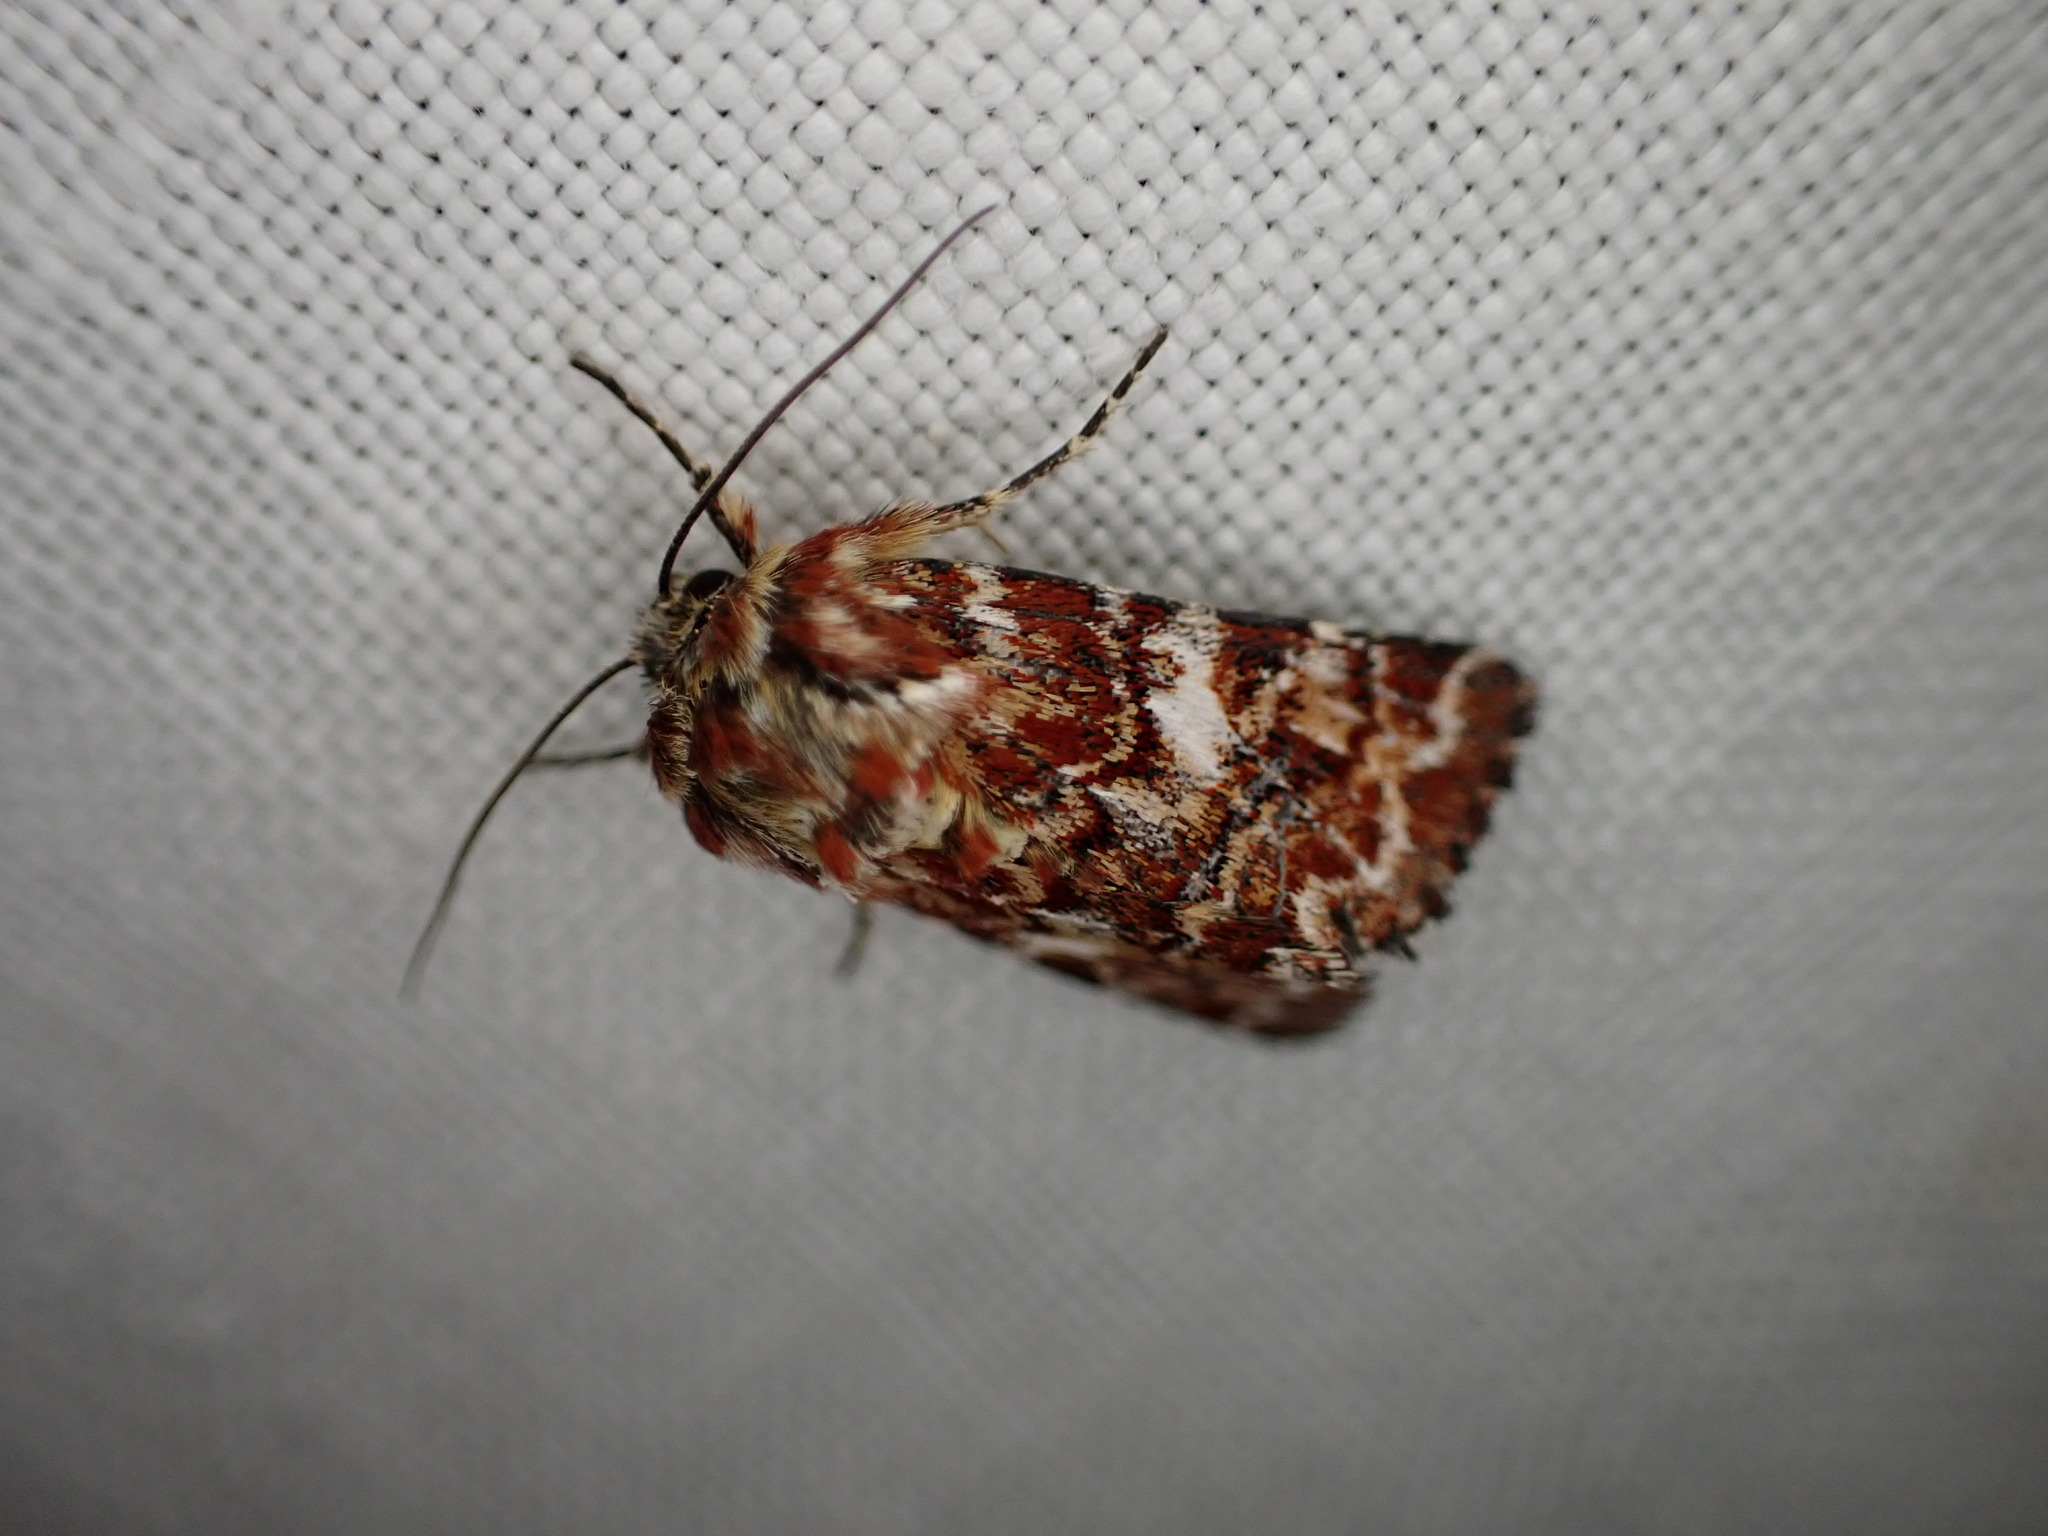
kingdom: Animalia
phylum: Arthropoda
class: Insecta
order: Lepidoptera
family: Noctuidae
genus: Anarta
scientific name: Anarta myrtilli
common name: Beautiful yellow underwing
